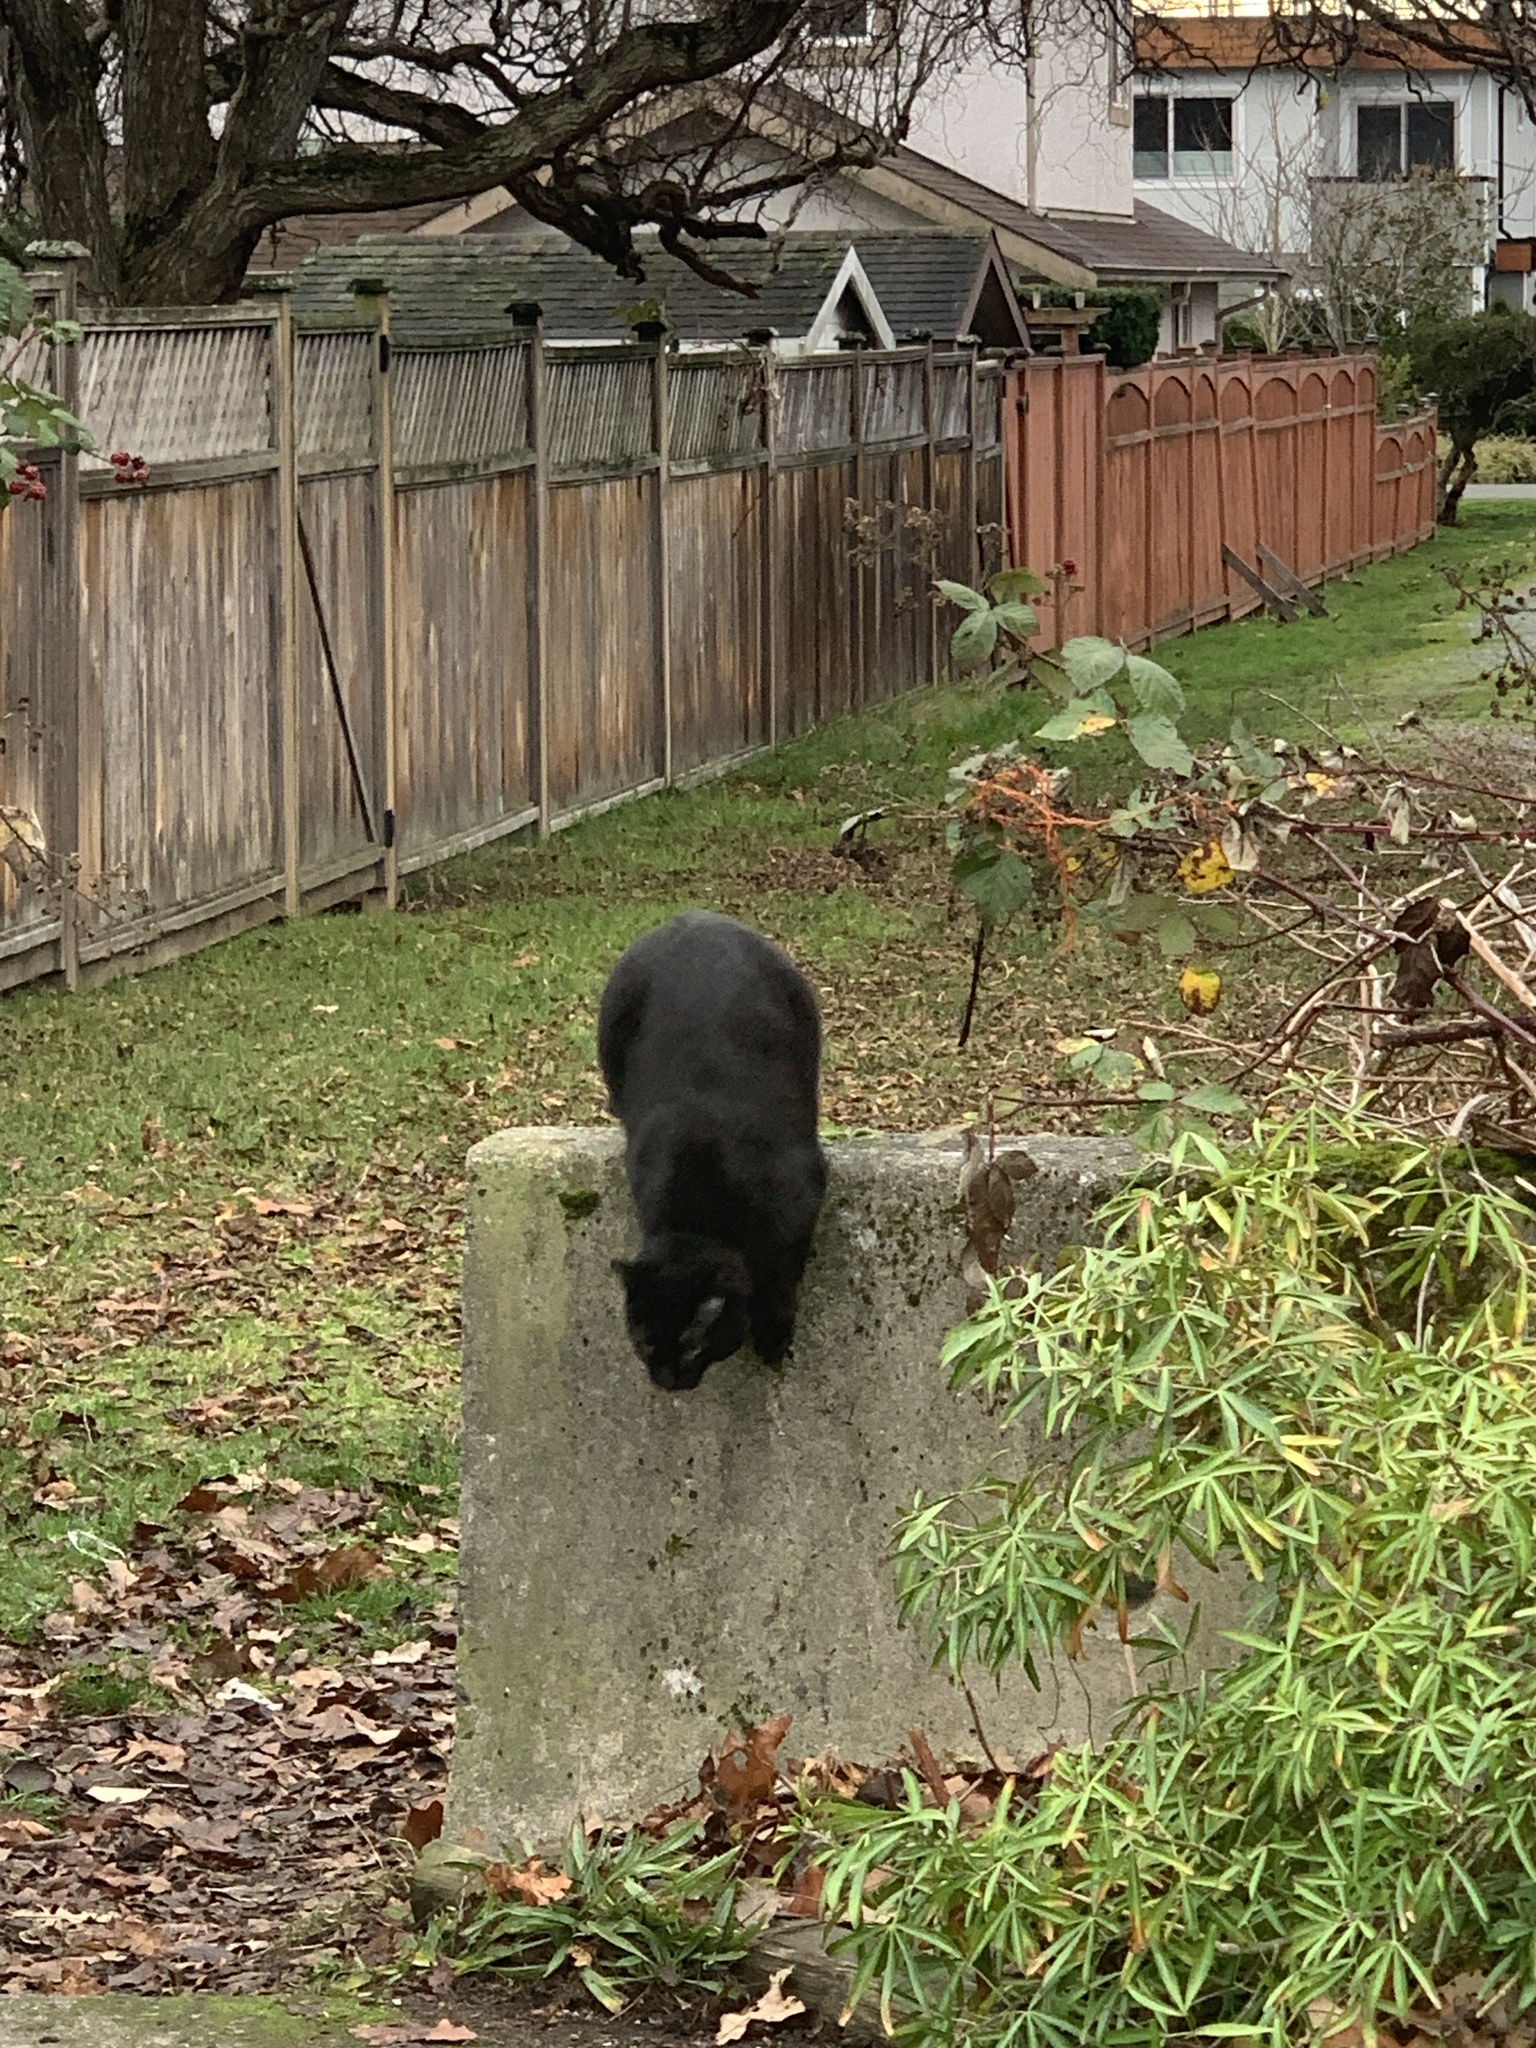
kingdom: Animalia
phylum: Chordata
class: Mammalia
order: Carnivora
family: Felidae
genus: Felis
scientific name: Felis catus
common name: Domestic cat
